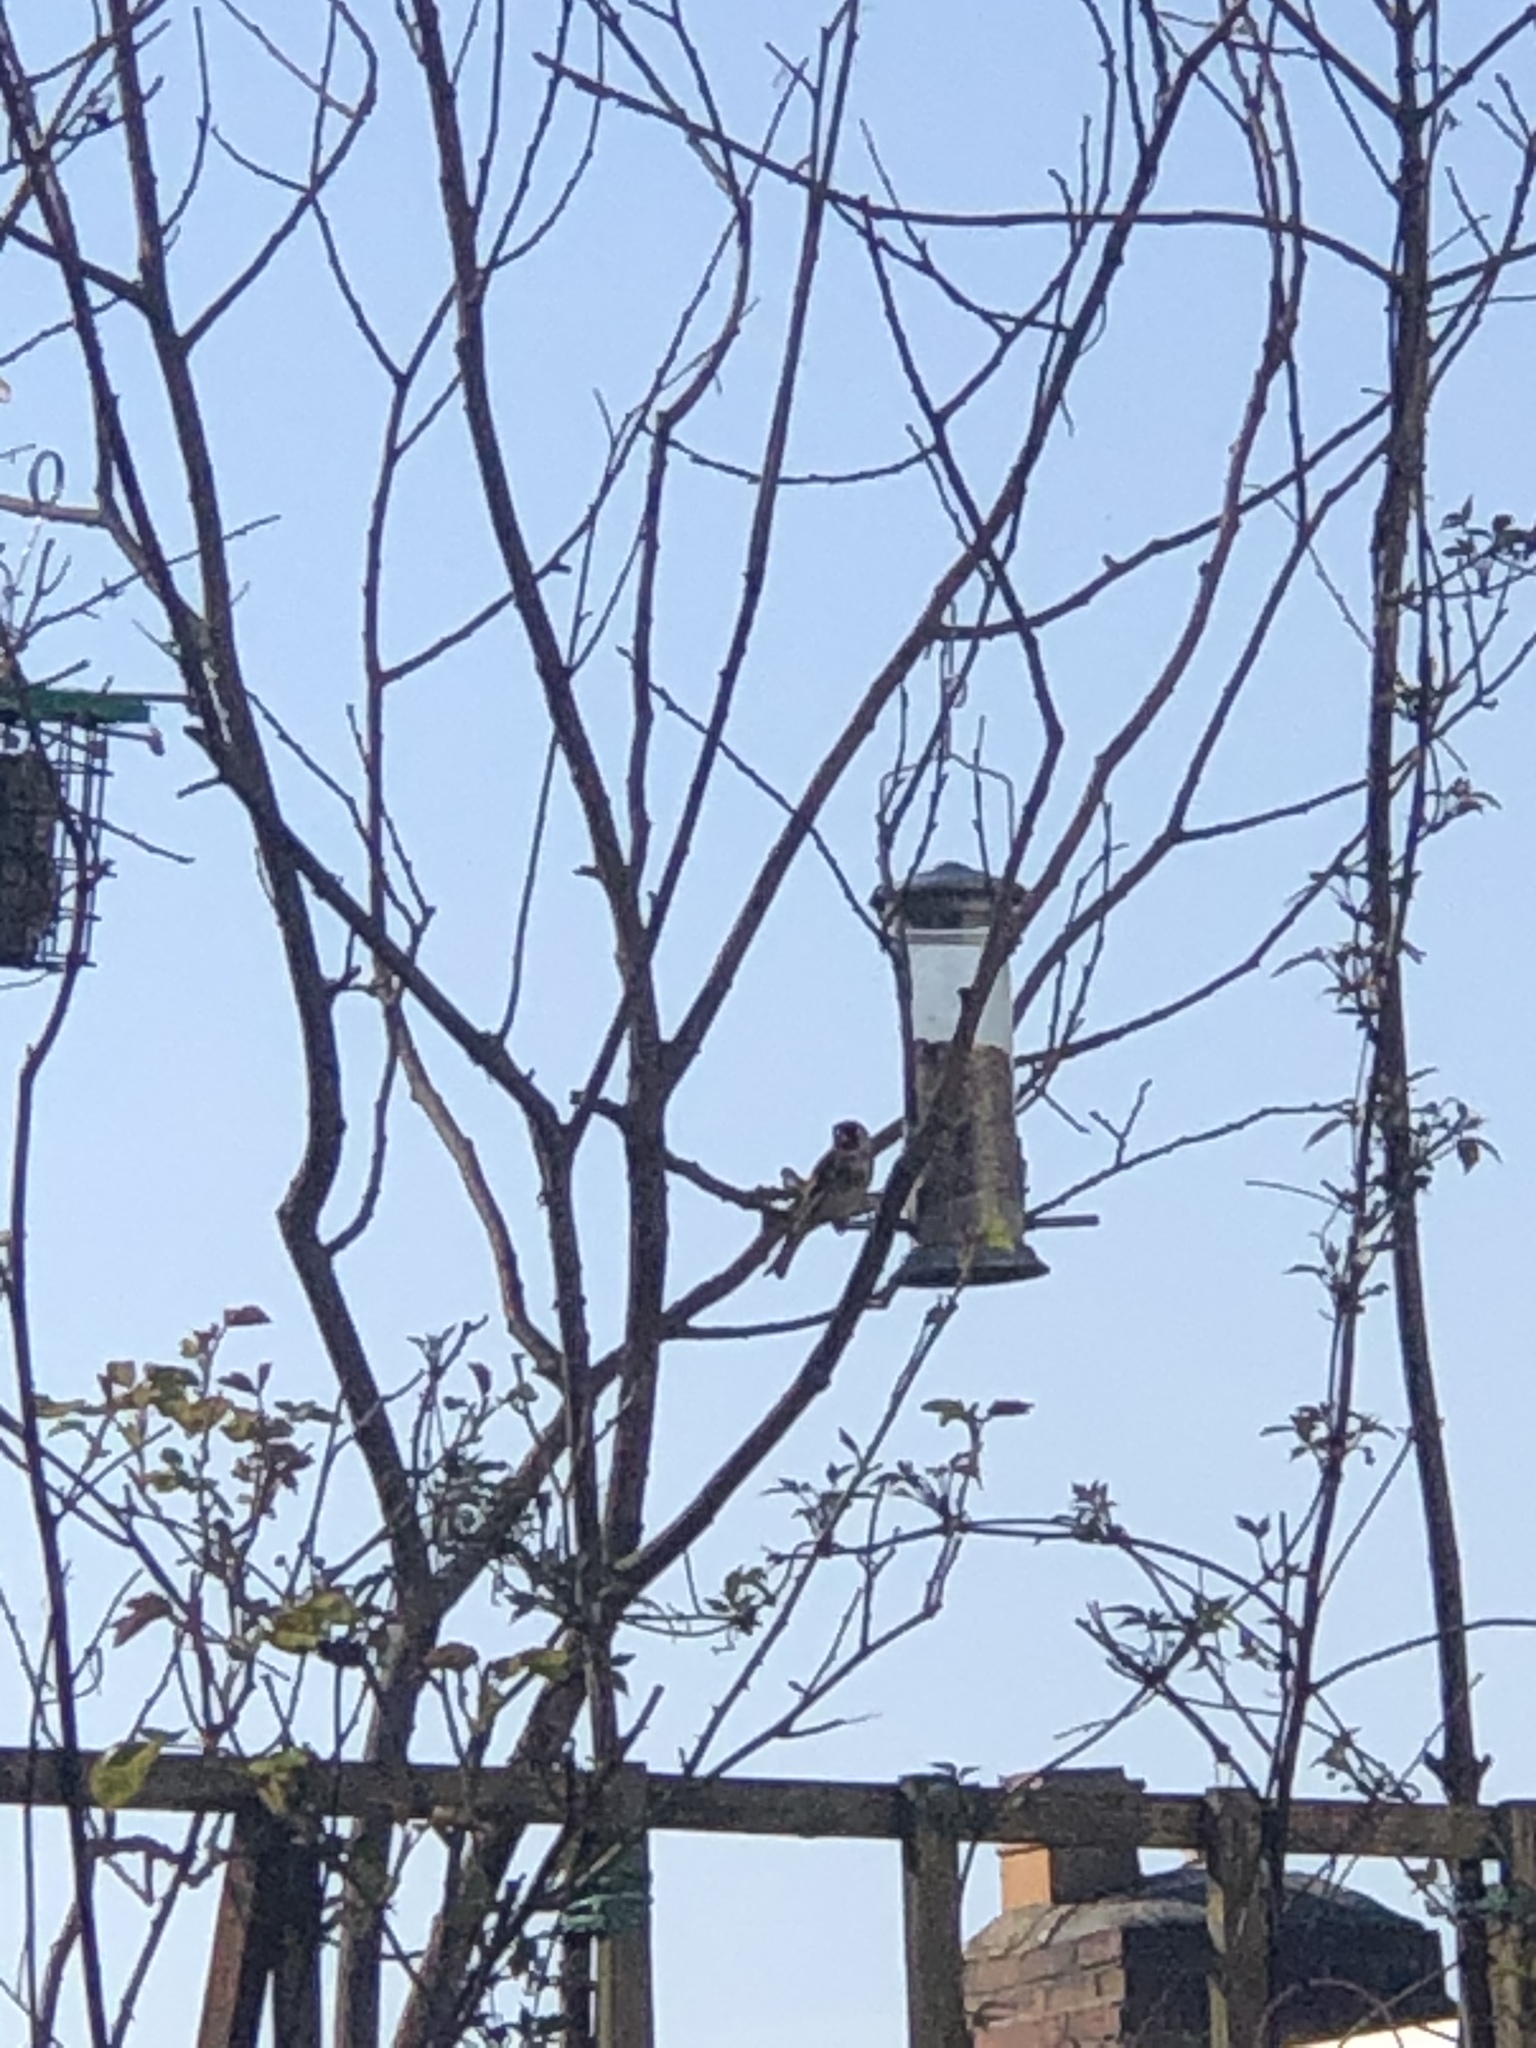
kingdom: Animalia
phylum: Chordata
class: Aves
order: Passeriformes
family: Fringillidae
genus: Carduelis
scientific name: Carduelis carduelis
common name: European goldfinch
